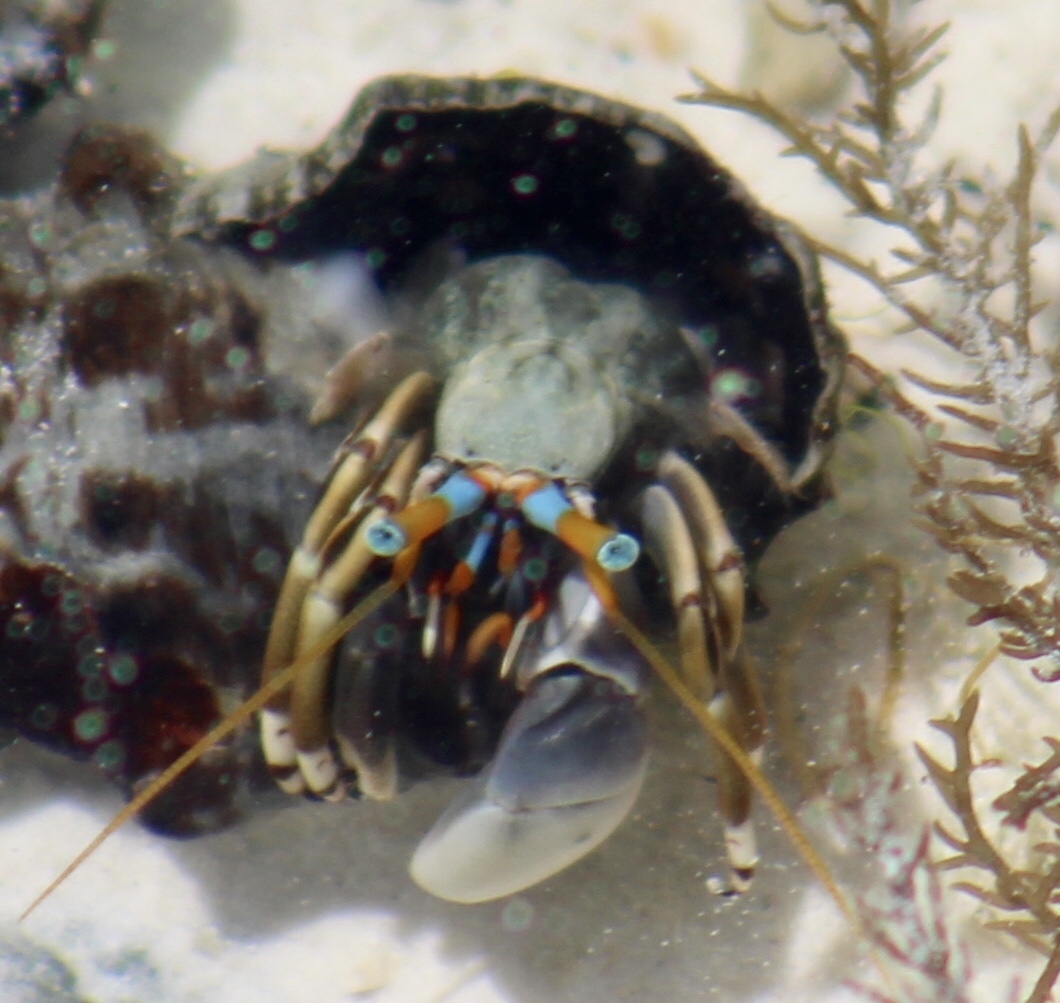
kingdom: Animalia
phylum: Arthropoda
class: Malacostraca
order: Decapoda
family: Diogenidae
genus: Calcinus
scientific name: Calcinus laevimanus
